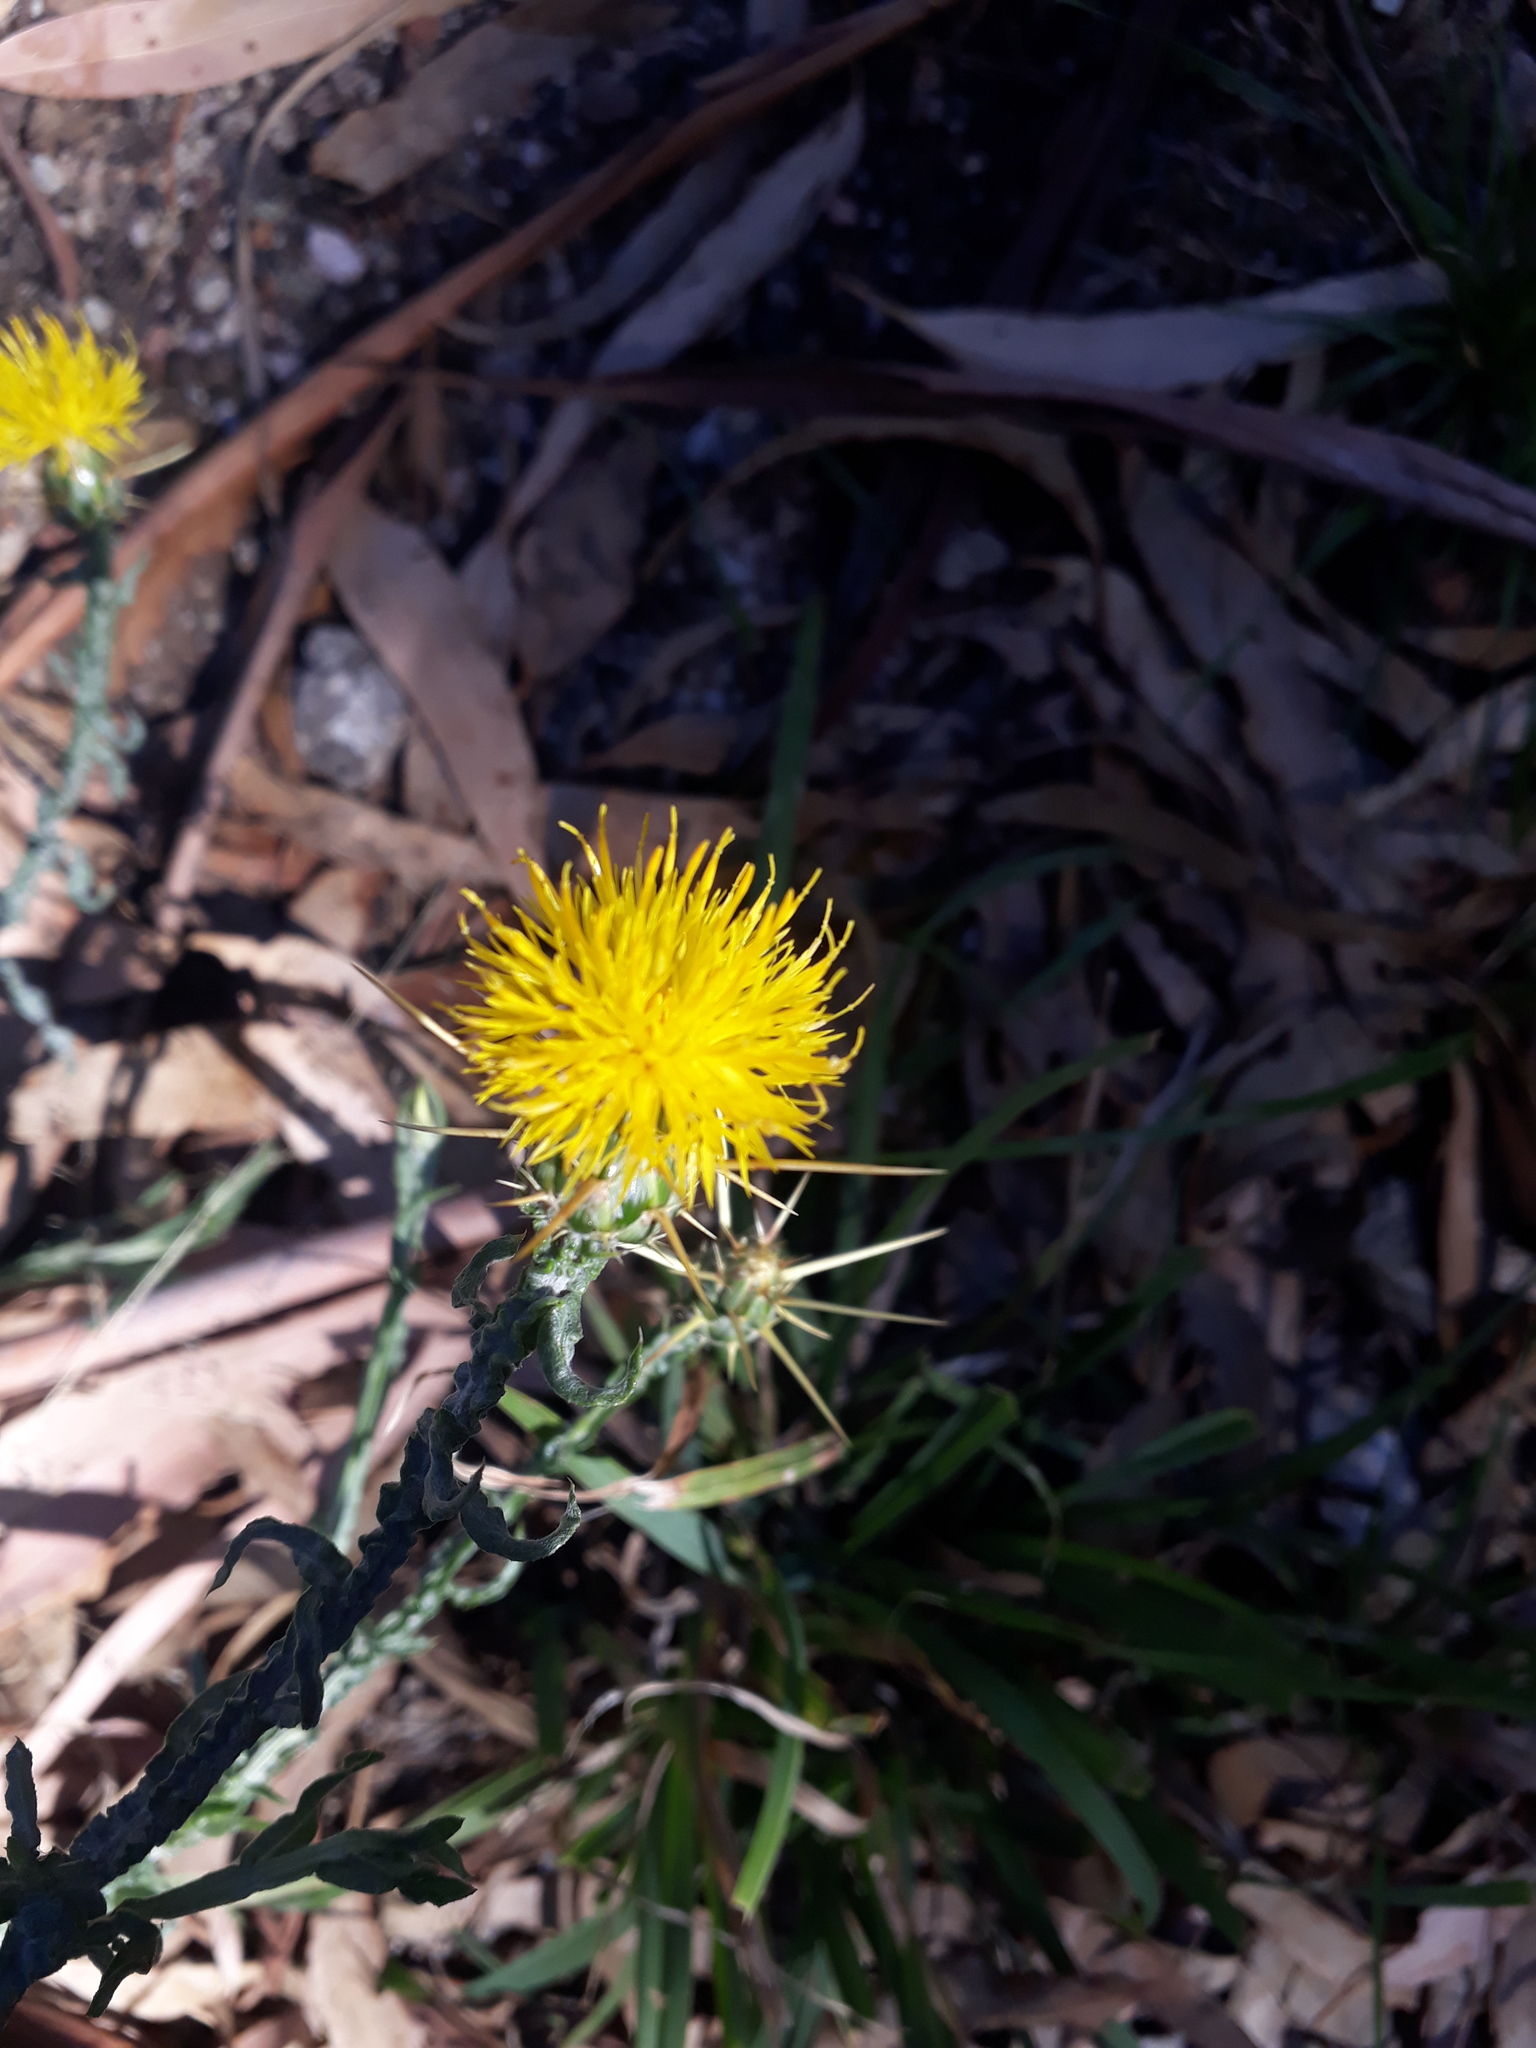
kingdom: Plantae
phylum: Tracheophyta
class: Magnoliopsida
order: Asterales
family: Asteraceae
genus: Centaurea
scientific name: Centaurea solstitialis
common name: Yellow star-thistle
